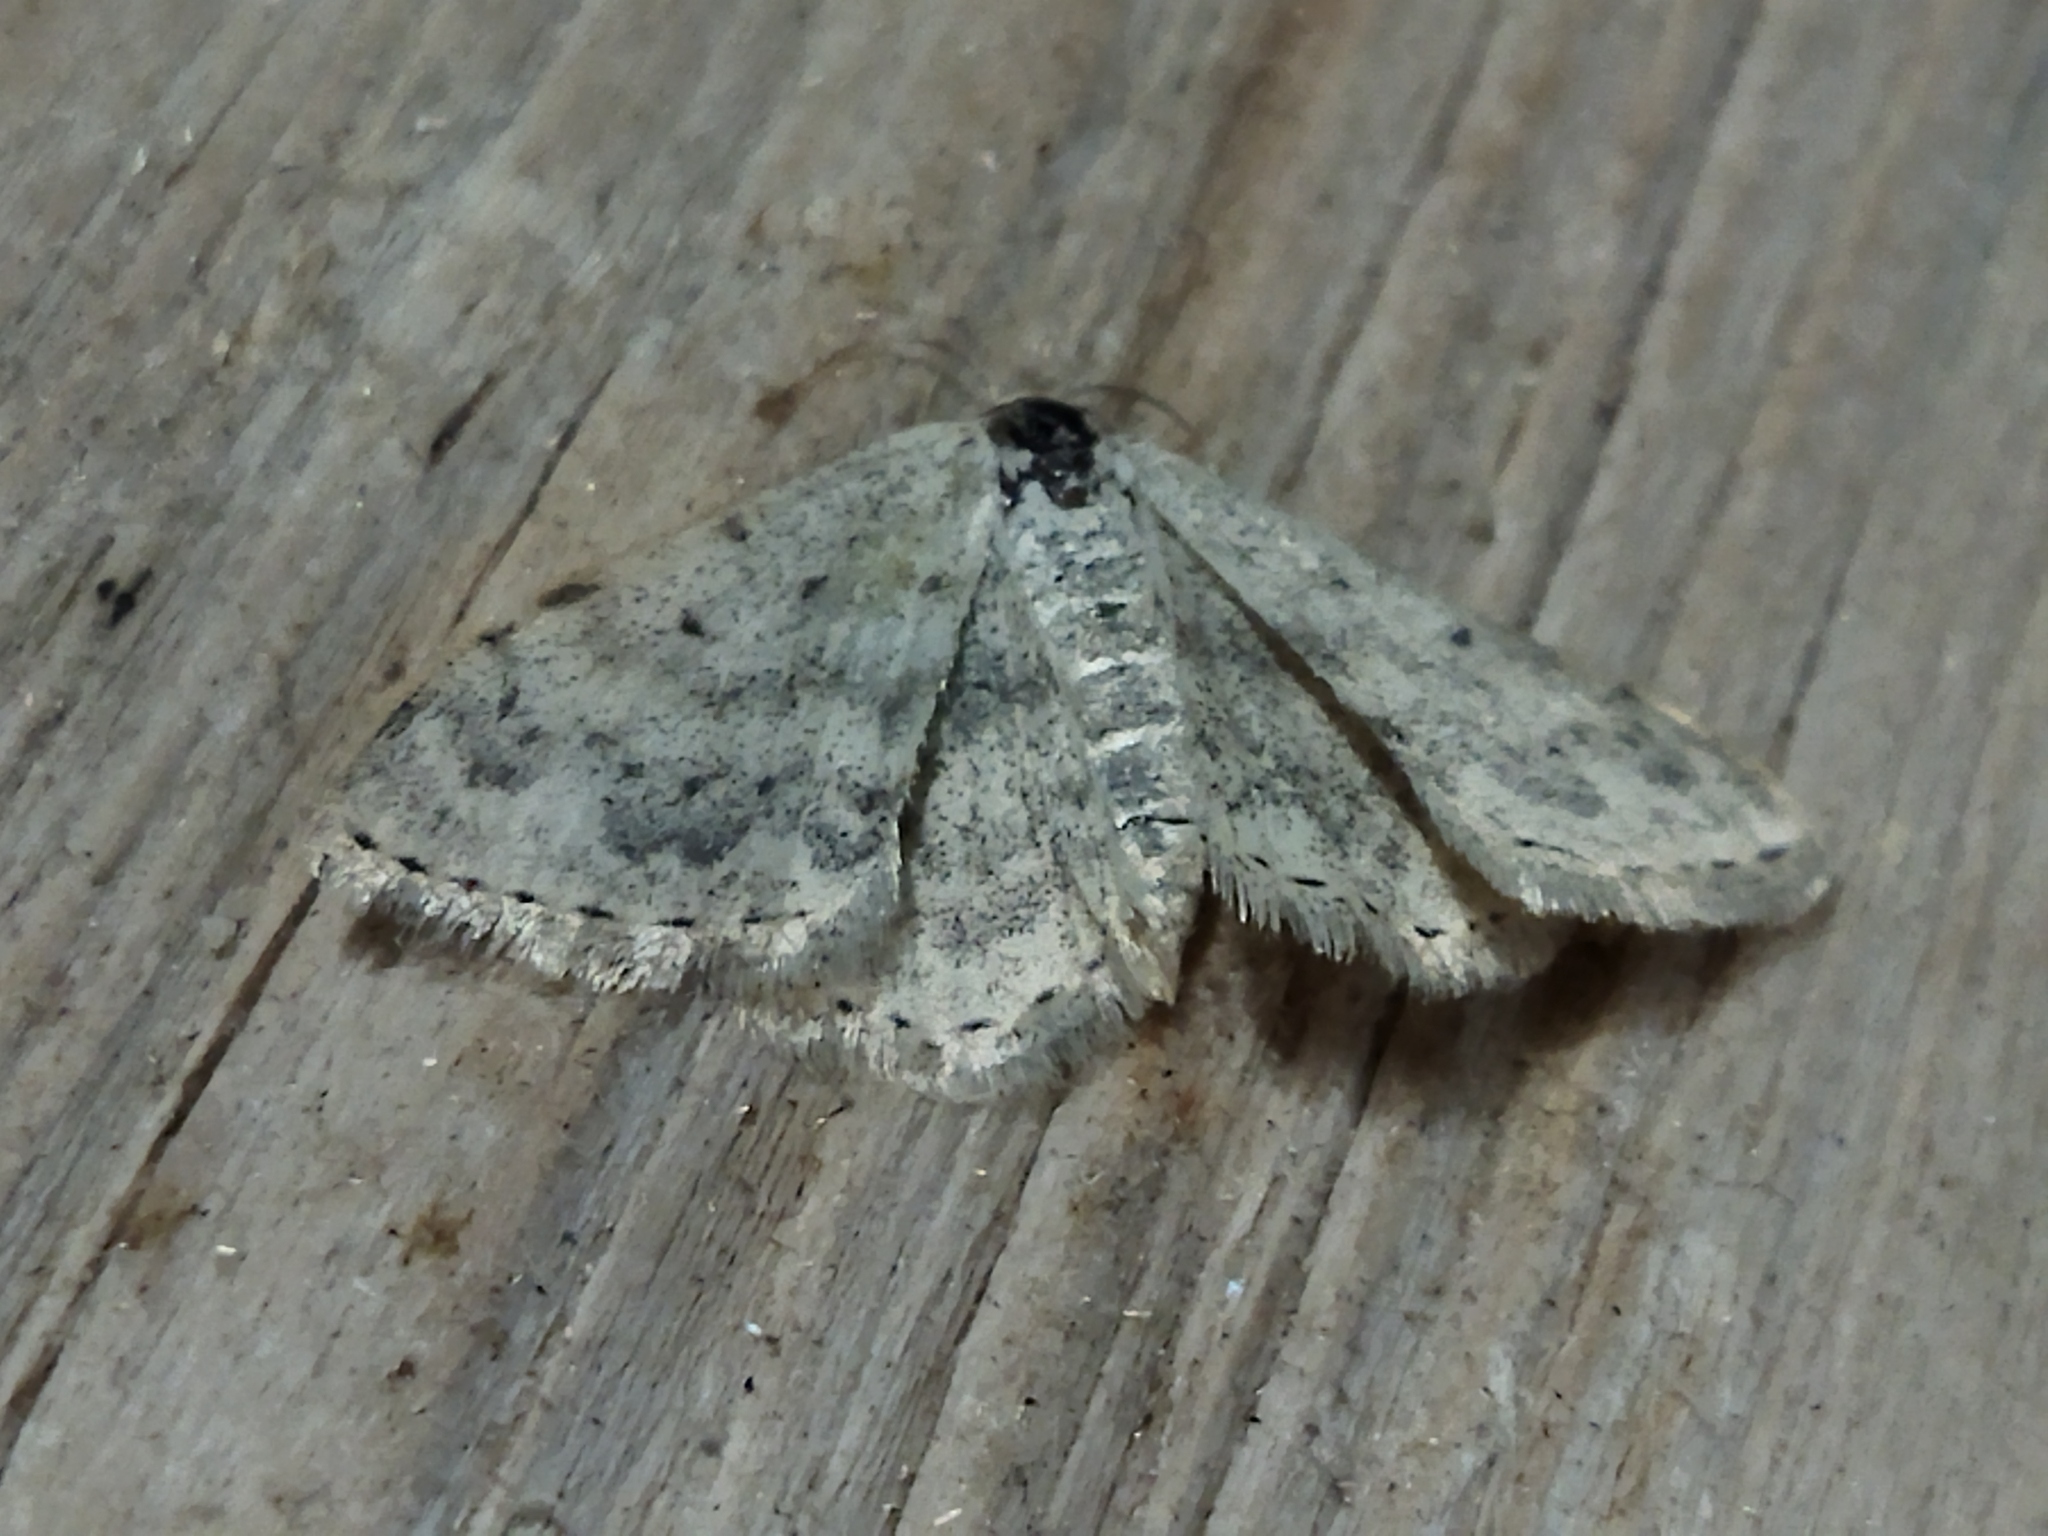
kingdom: Animalia
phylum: Arthropoda
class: Insecta
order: Lepidoptera
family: Geometridae
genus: Scopula
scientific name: Scopula marginepunctata
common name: Mullein wave
